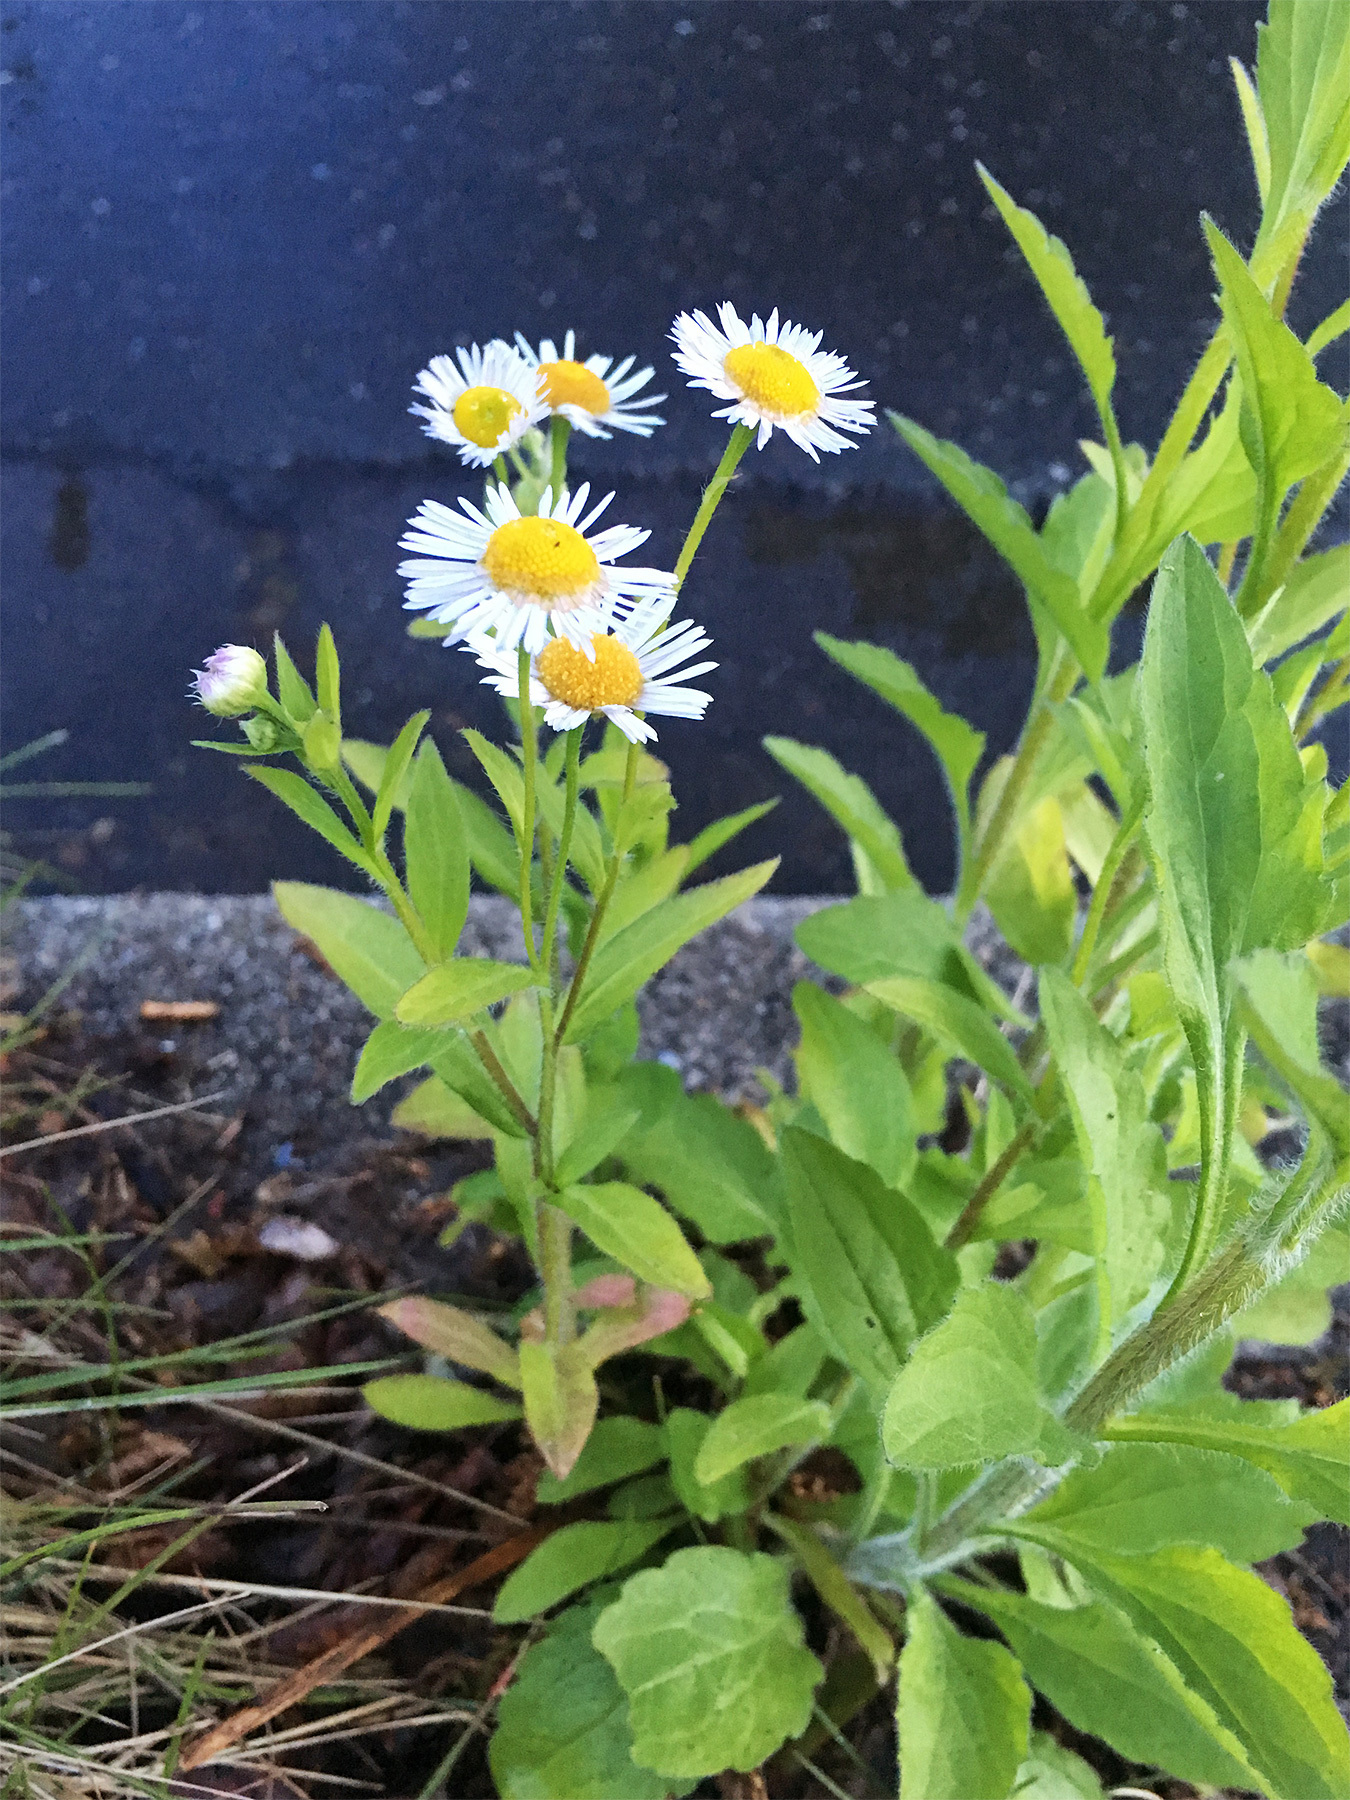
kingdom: Plantae
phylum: Tracheophyta
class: Magnoliopsida
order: Asterales
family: Asteraceae
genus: Erigeron
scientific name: Erigeron annuus
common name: Tall fleabane
